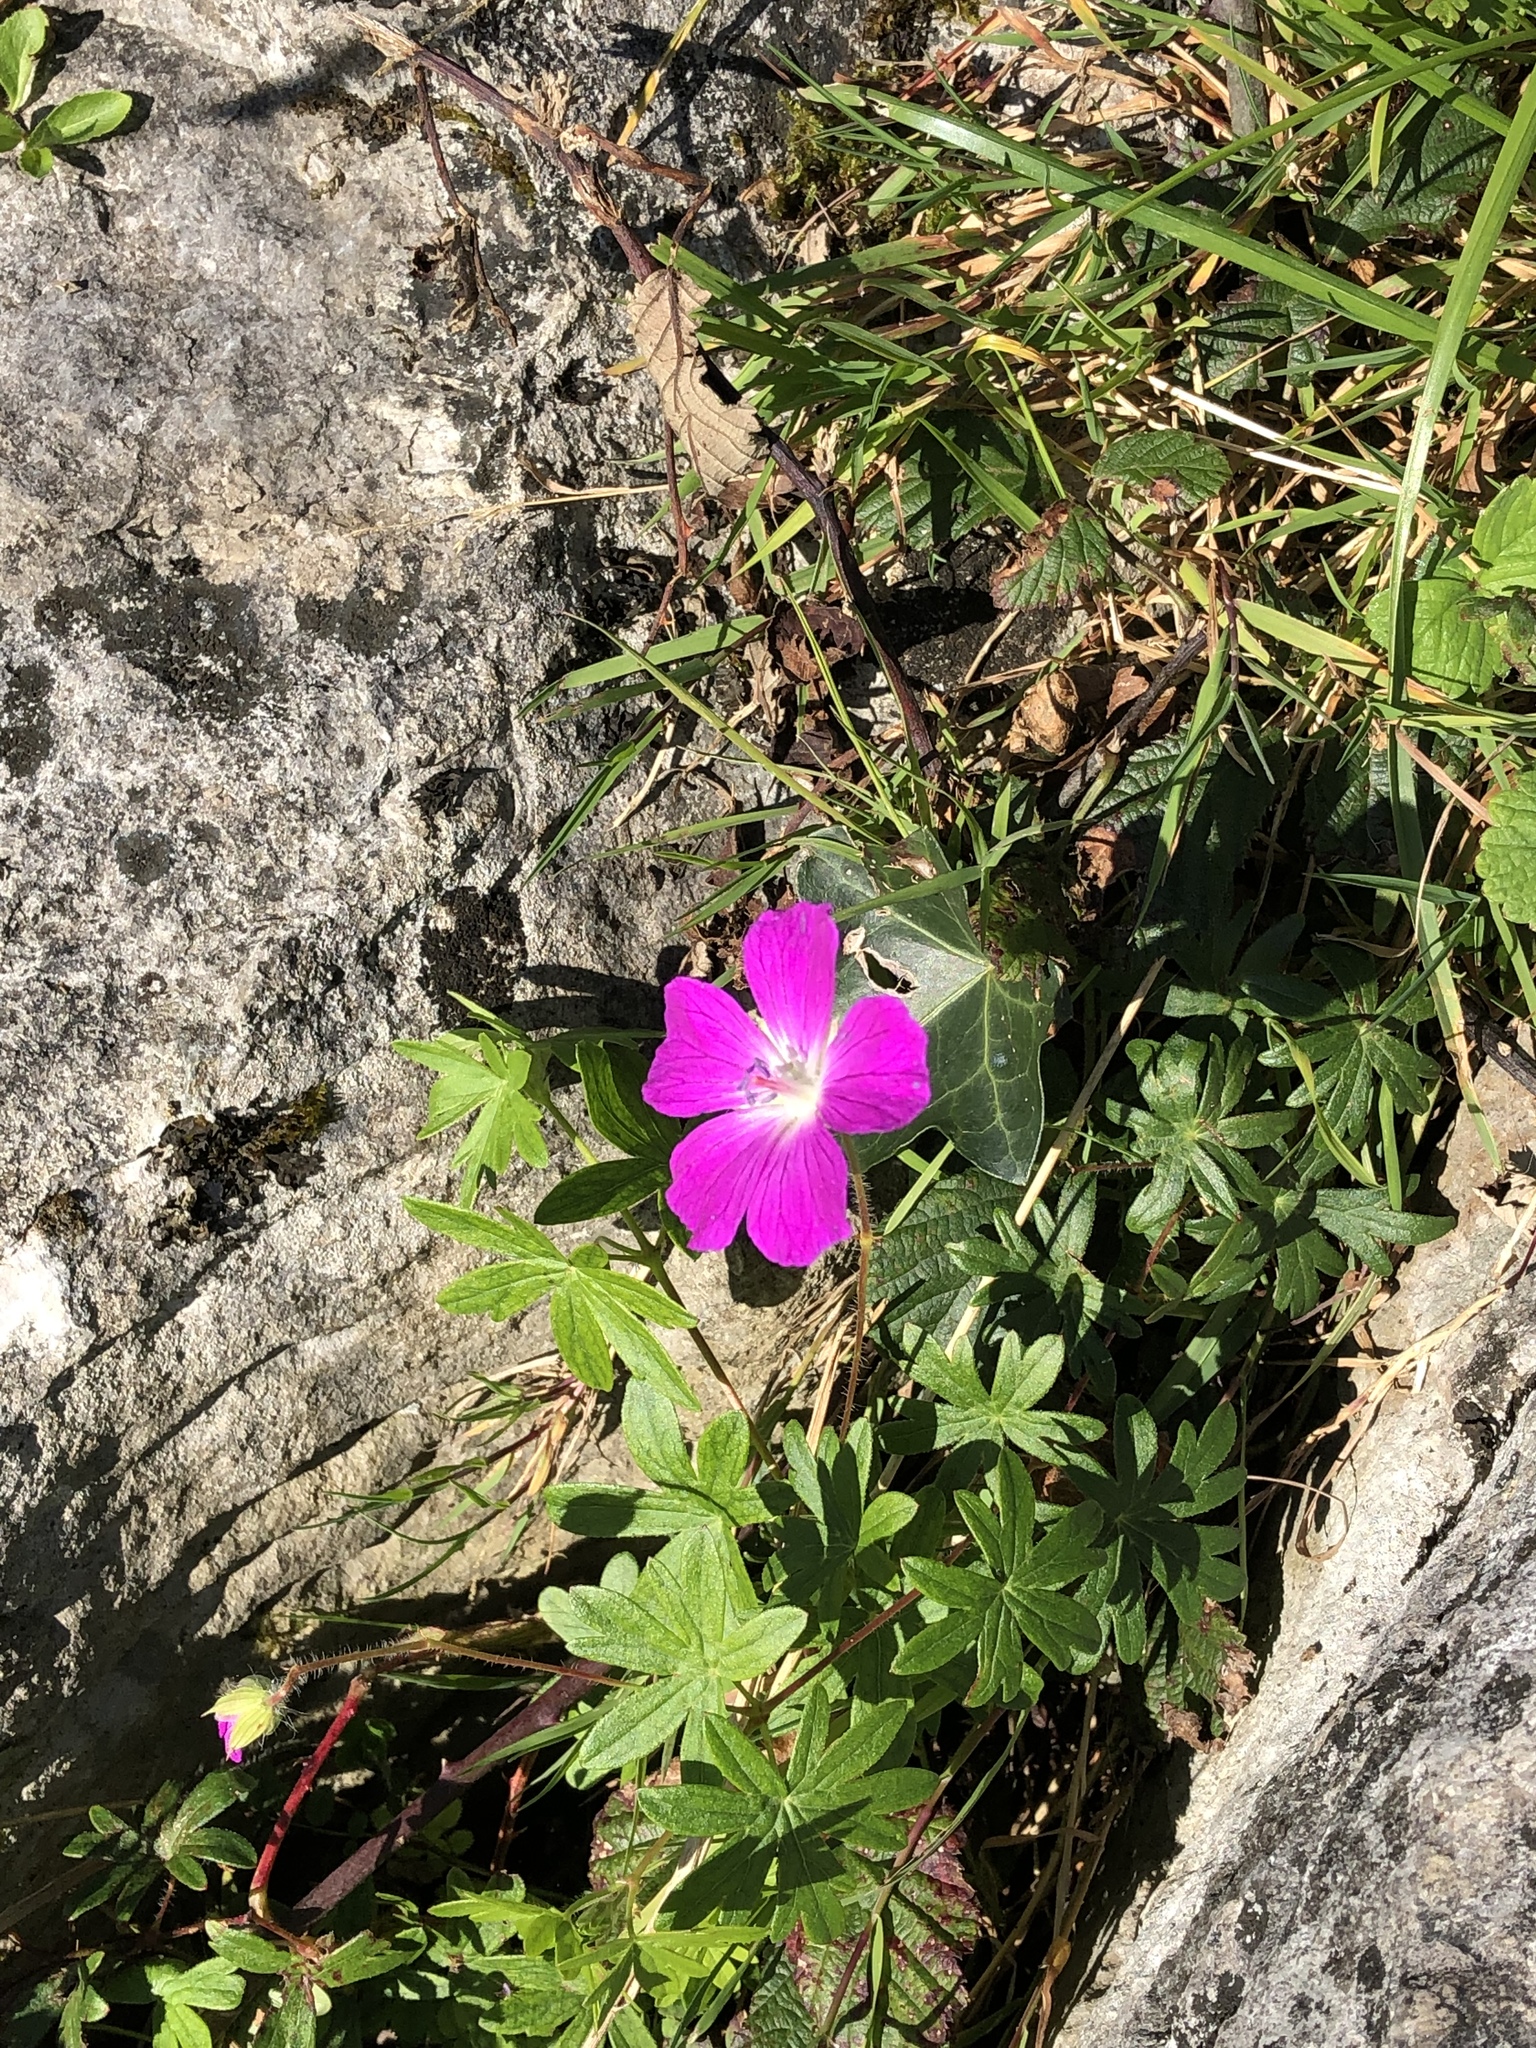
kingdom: Plantae
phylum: Tracheophyta
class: Magnoliopsida
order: Geraniales
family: Geraniaceae
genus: Geranium
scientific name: Geranium sanguineum
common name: Bloody crane's-bill
